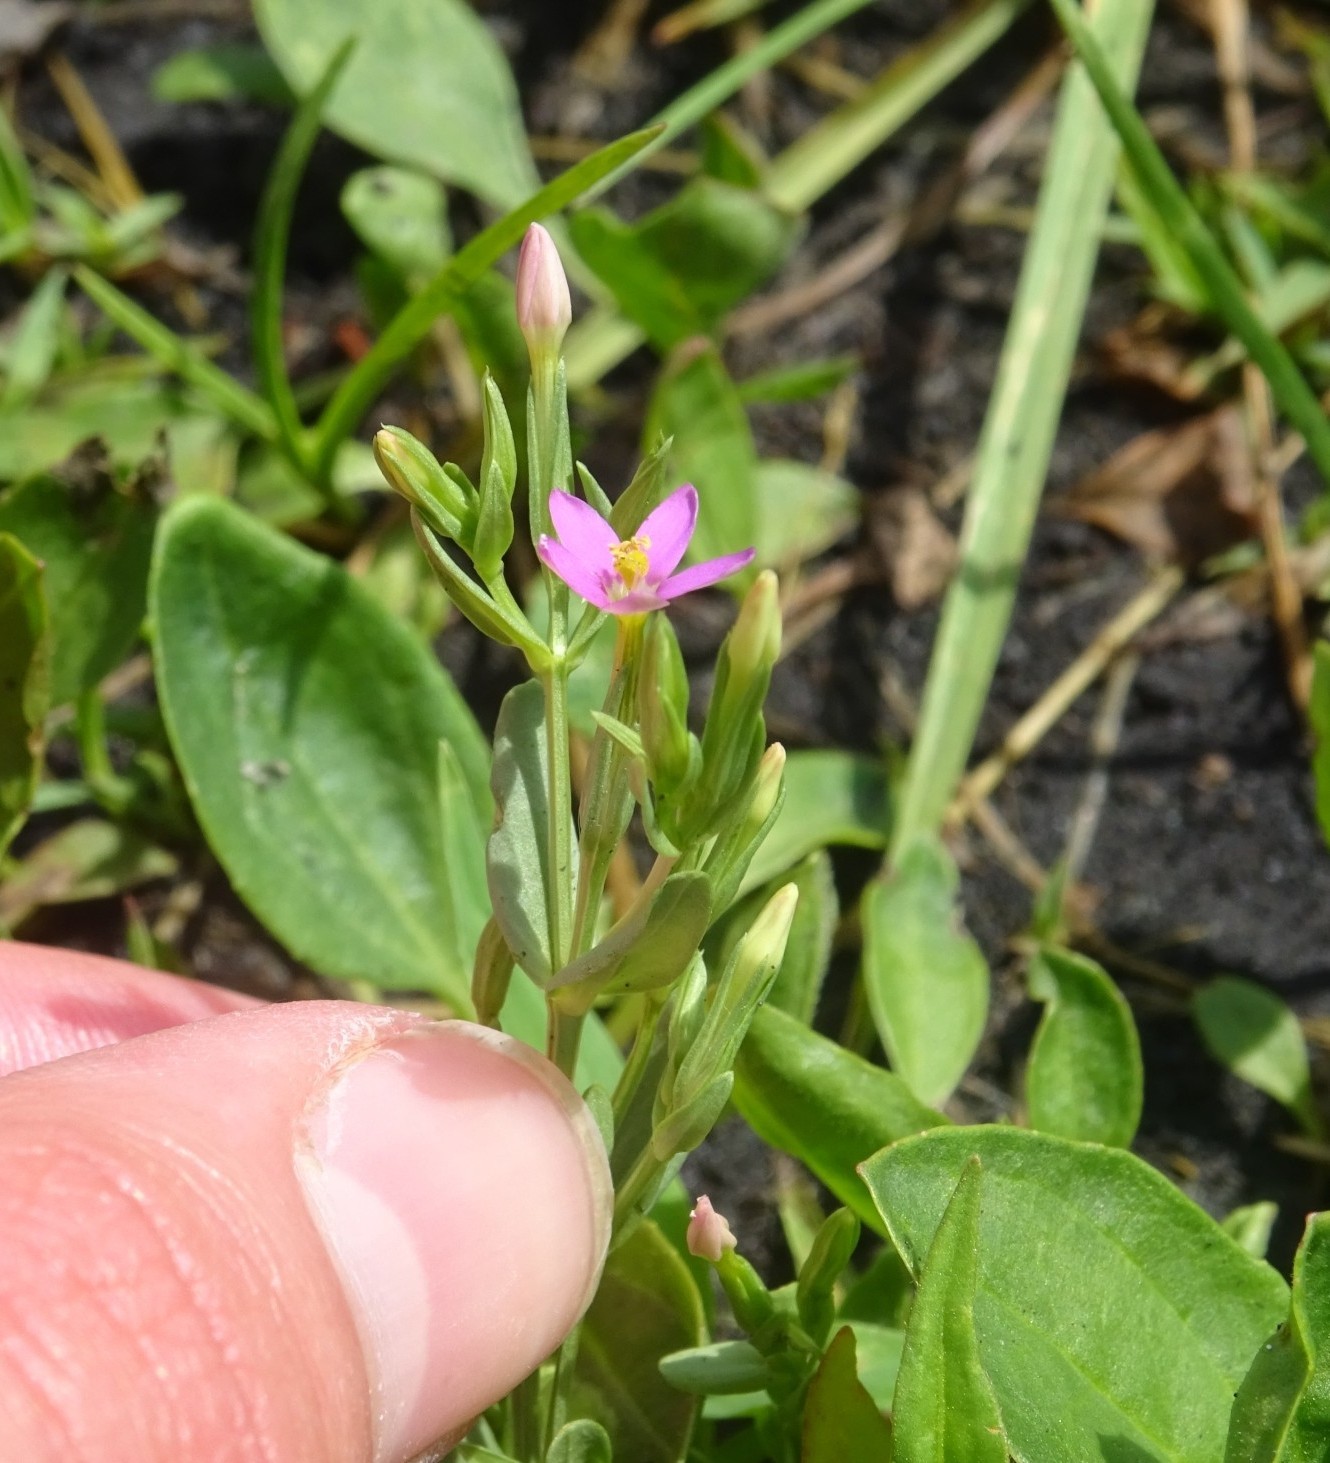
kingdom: Plantae
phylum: Tracheophyta
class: Magnoliopsida
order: Gentianales
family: Gentianaceae
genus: Centaurium
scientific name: Centaurium pulchellum
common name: Lesser centaury
